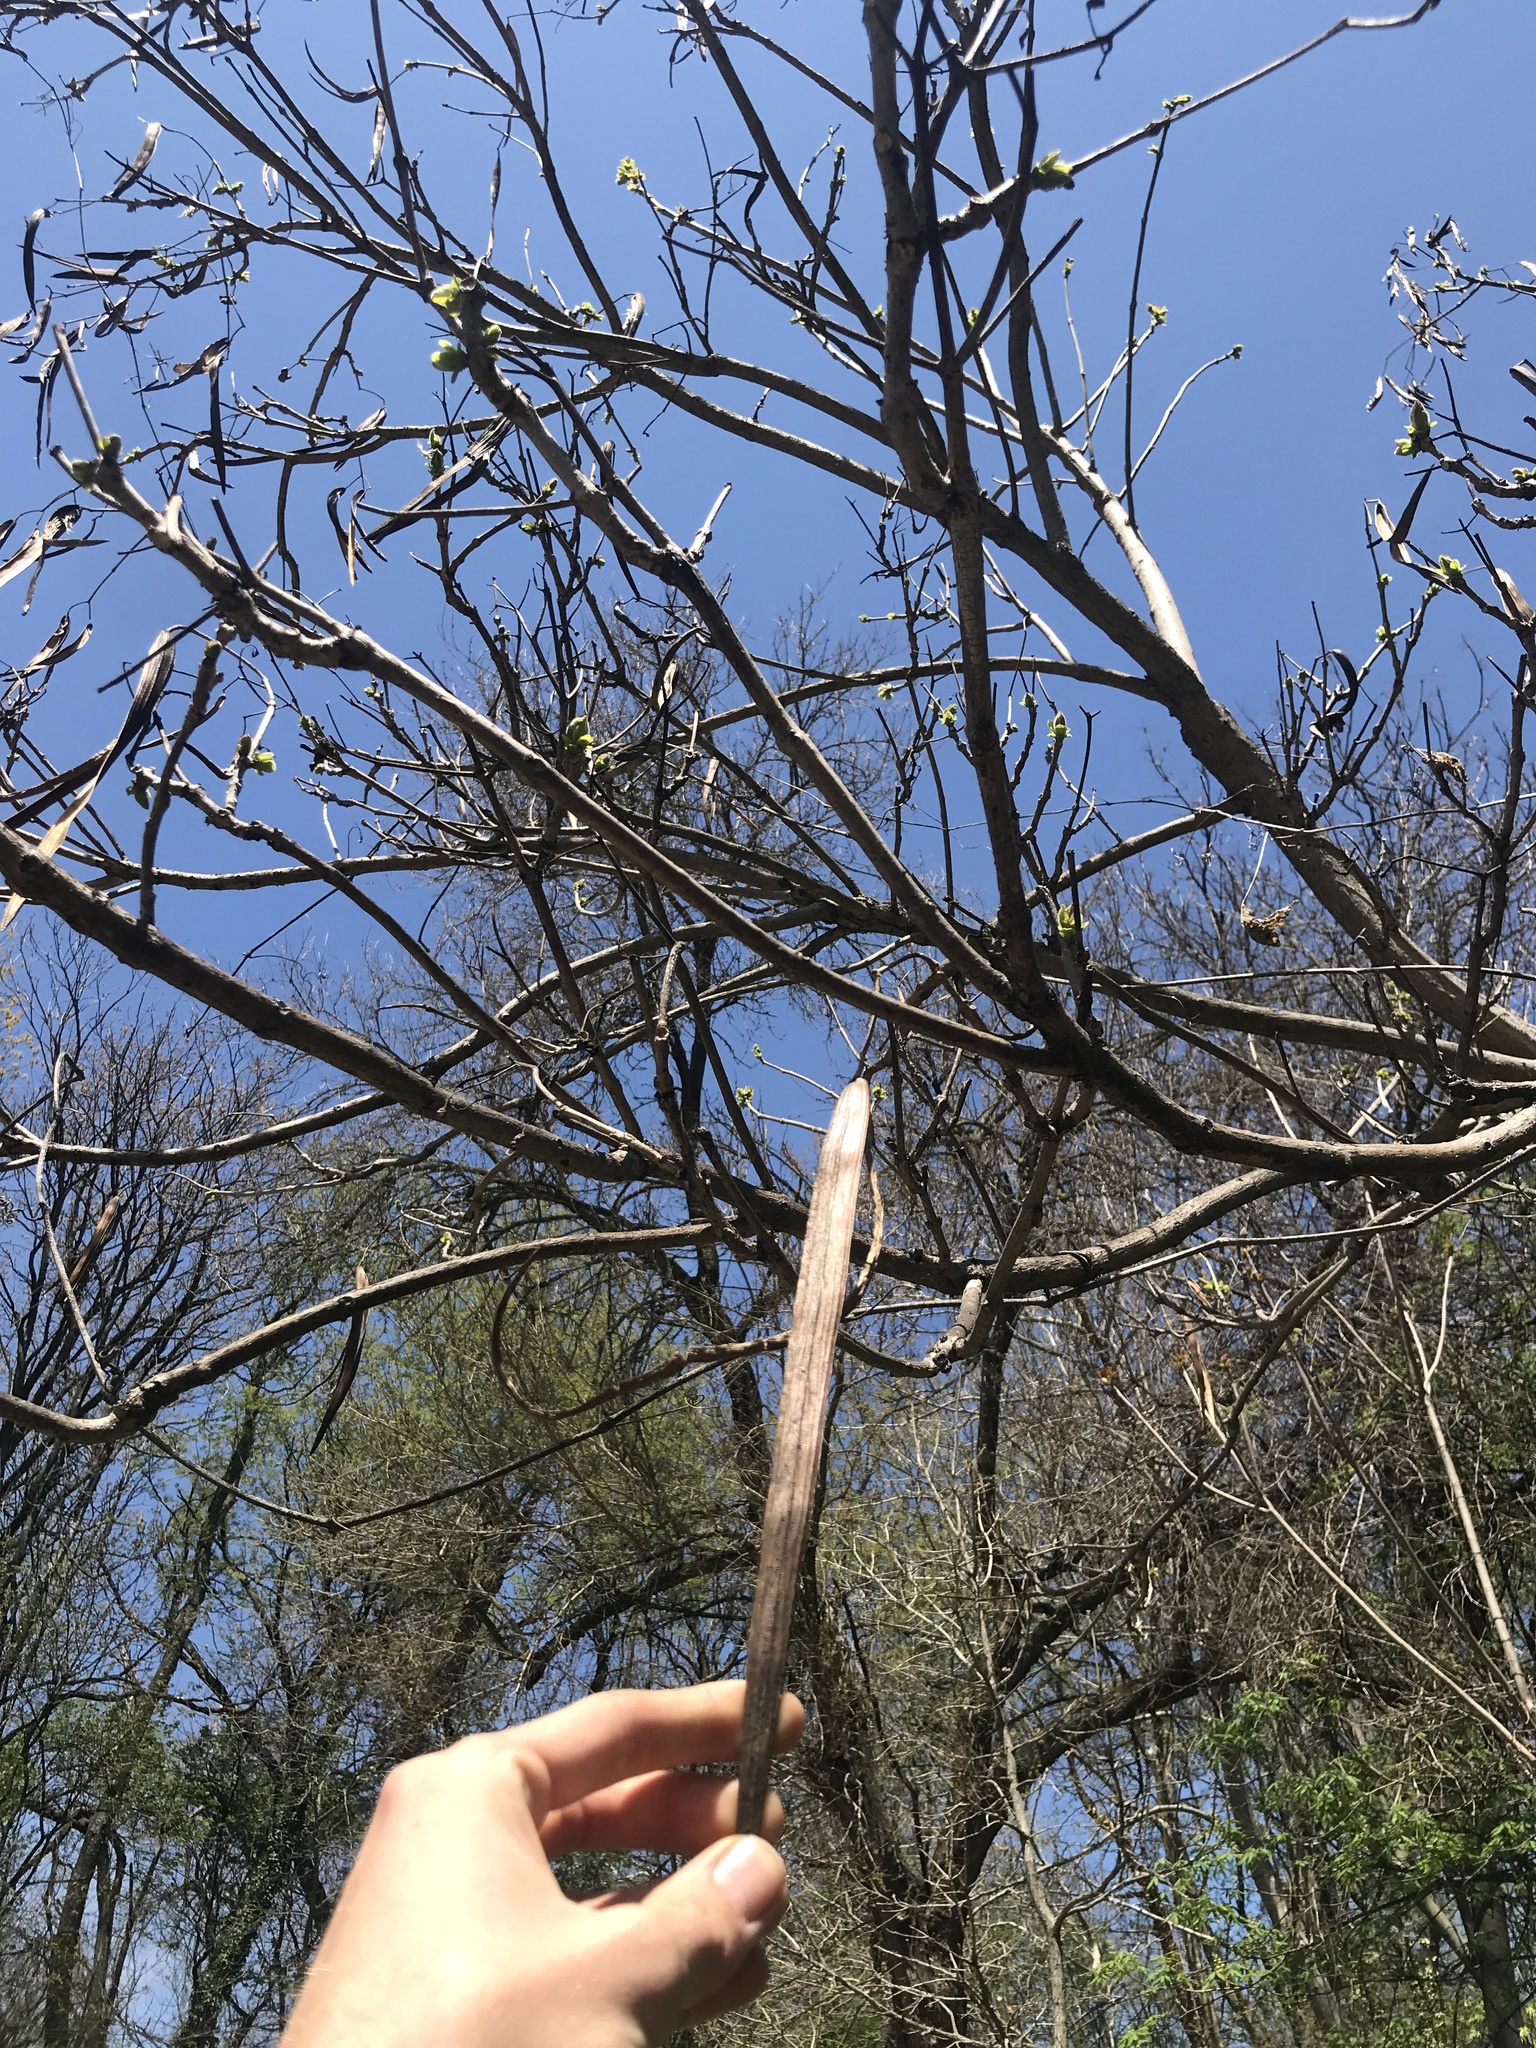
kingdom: Plantae
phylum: Tracheophyta
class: Magnoliopsida
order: Lamiales
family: Bignoniaceae
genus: Catalpa
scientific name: Catalpa
